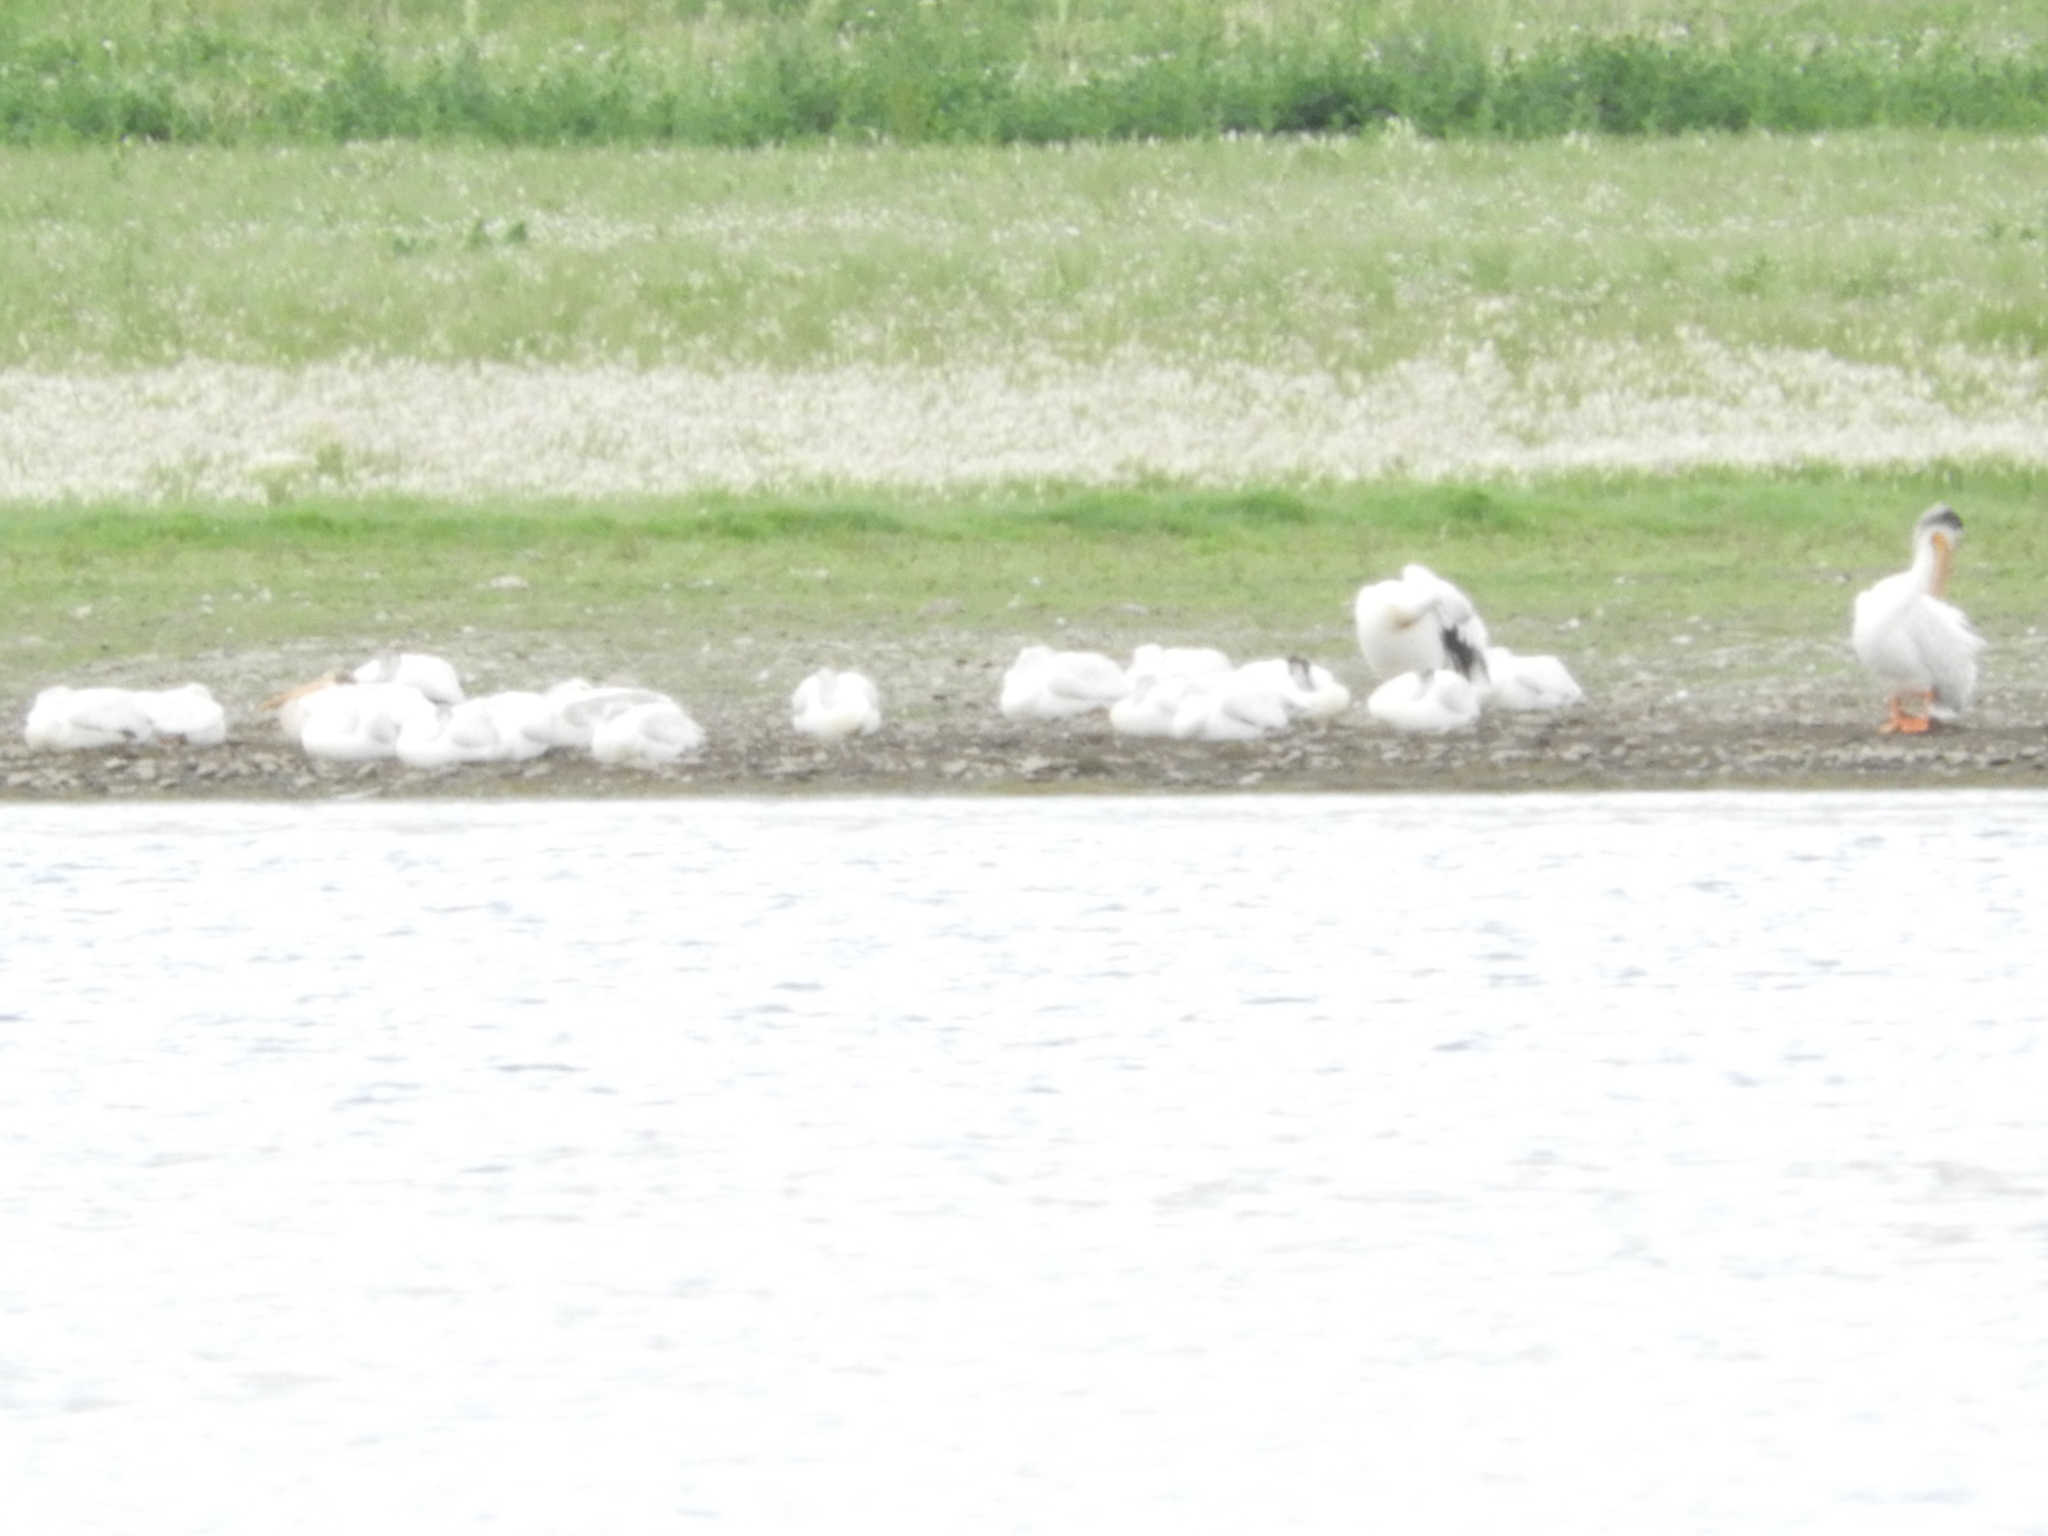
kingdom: Animalia
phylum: Chordata
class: Aves
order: Pelecaniformes
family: Pelecanidae
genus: Pelecanus
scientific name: Pelecanus erythrorhynchos
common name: American white pelican
